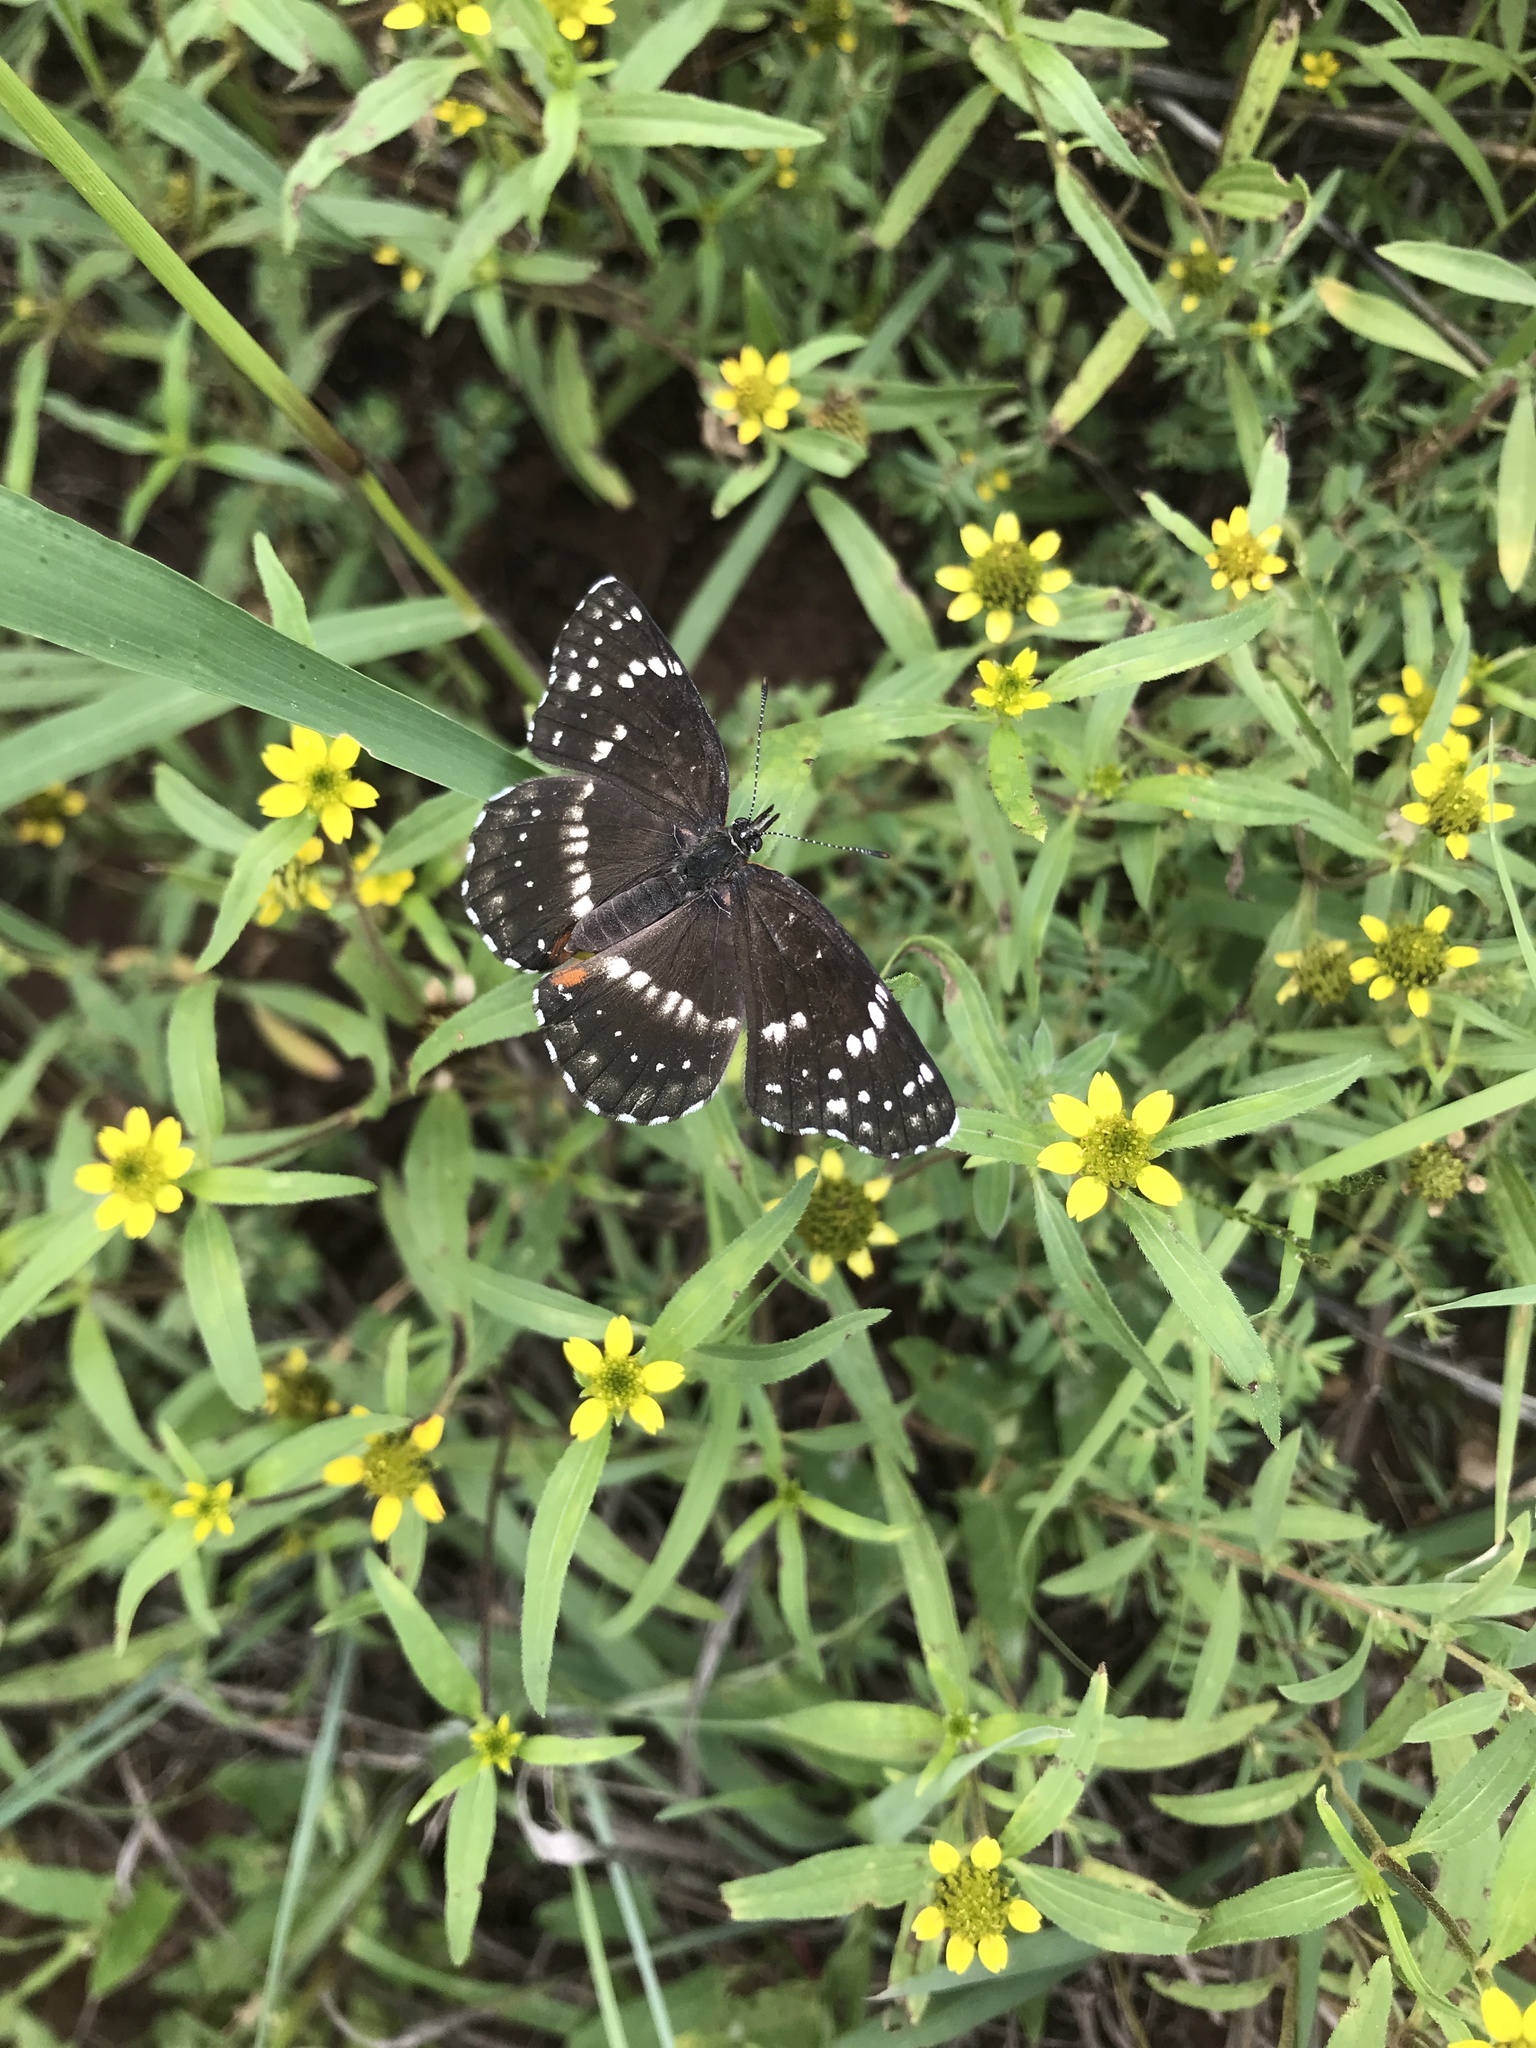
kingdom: Animalia
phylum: Arthropoda
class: Insecta
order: Lepidoptera
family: Nymphalidae
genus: Chlosyne
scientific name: Chlosyne lacinia
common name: Bordered patch
